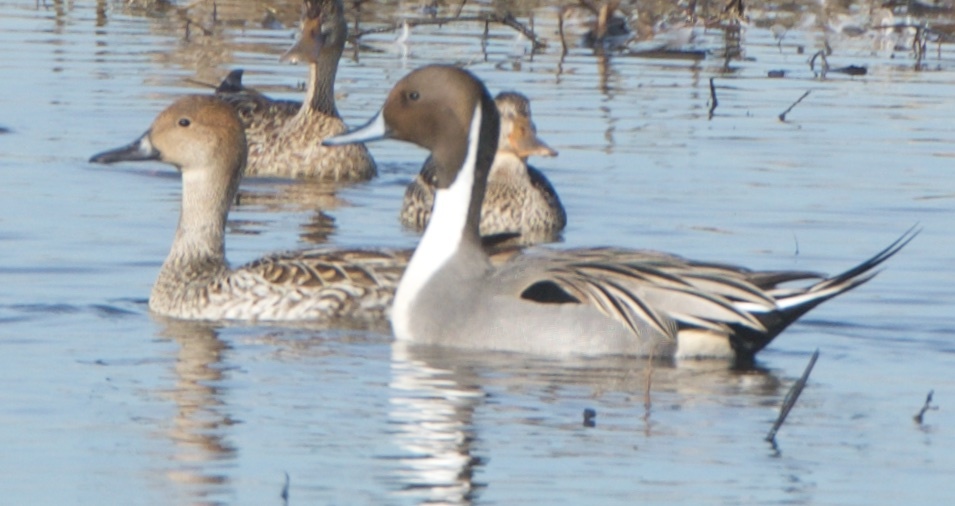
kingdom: Animalia
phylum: Chordata
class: Aves
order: Anseriformes
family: Anatidae
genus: Anas
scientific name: Anas acuta
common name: Northern pintail
